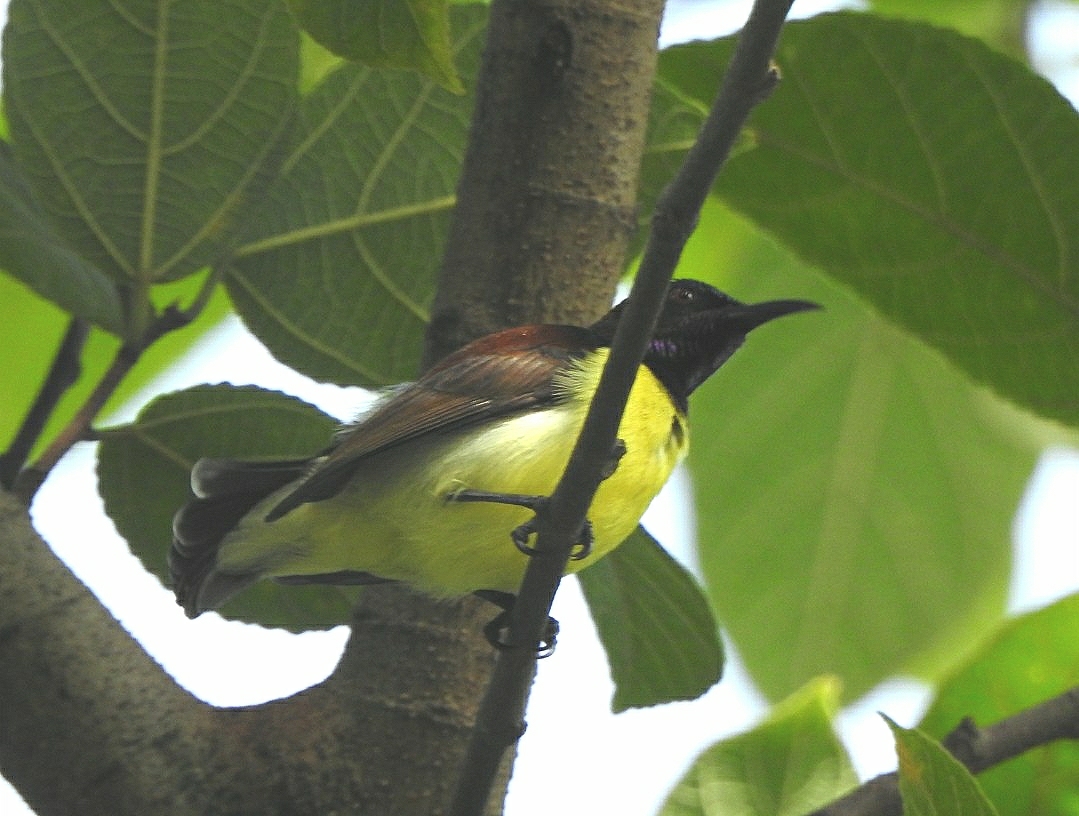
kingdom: Animalia
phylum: Chordata
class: Aves
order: Passeriformes
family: Nectariniidae
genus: Leptocoma
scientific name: Leptocoma zeylonica
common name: Purple-rumped sunbird
